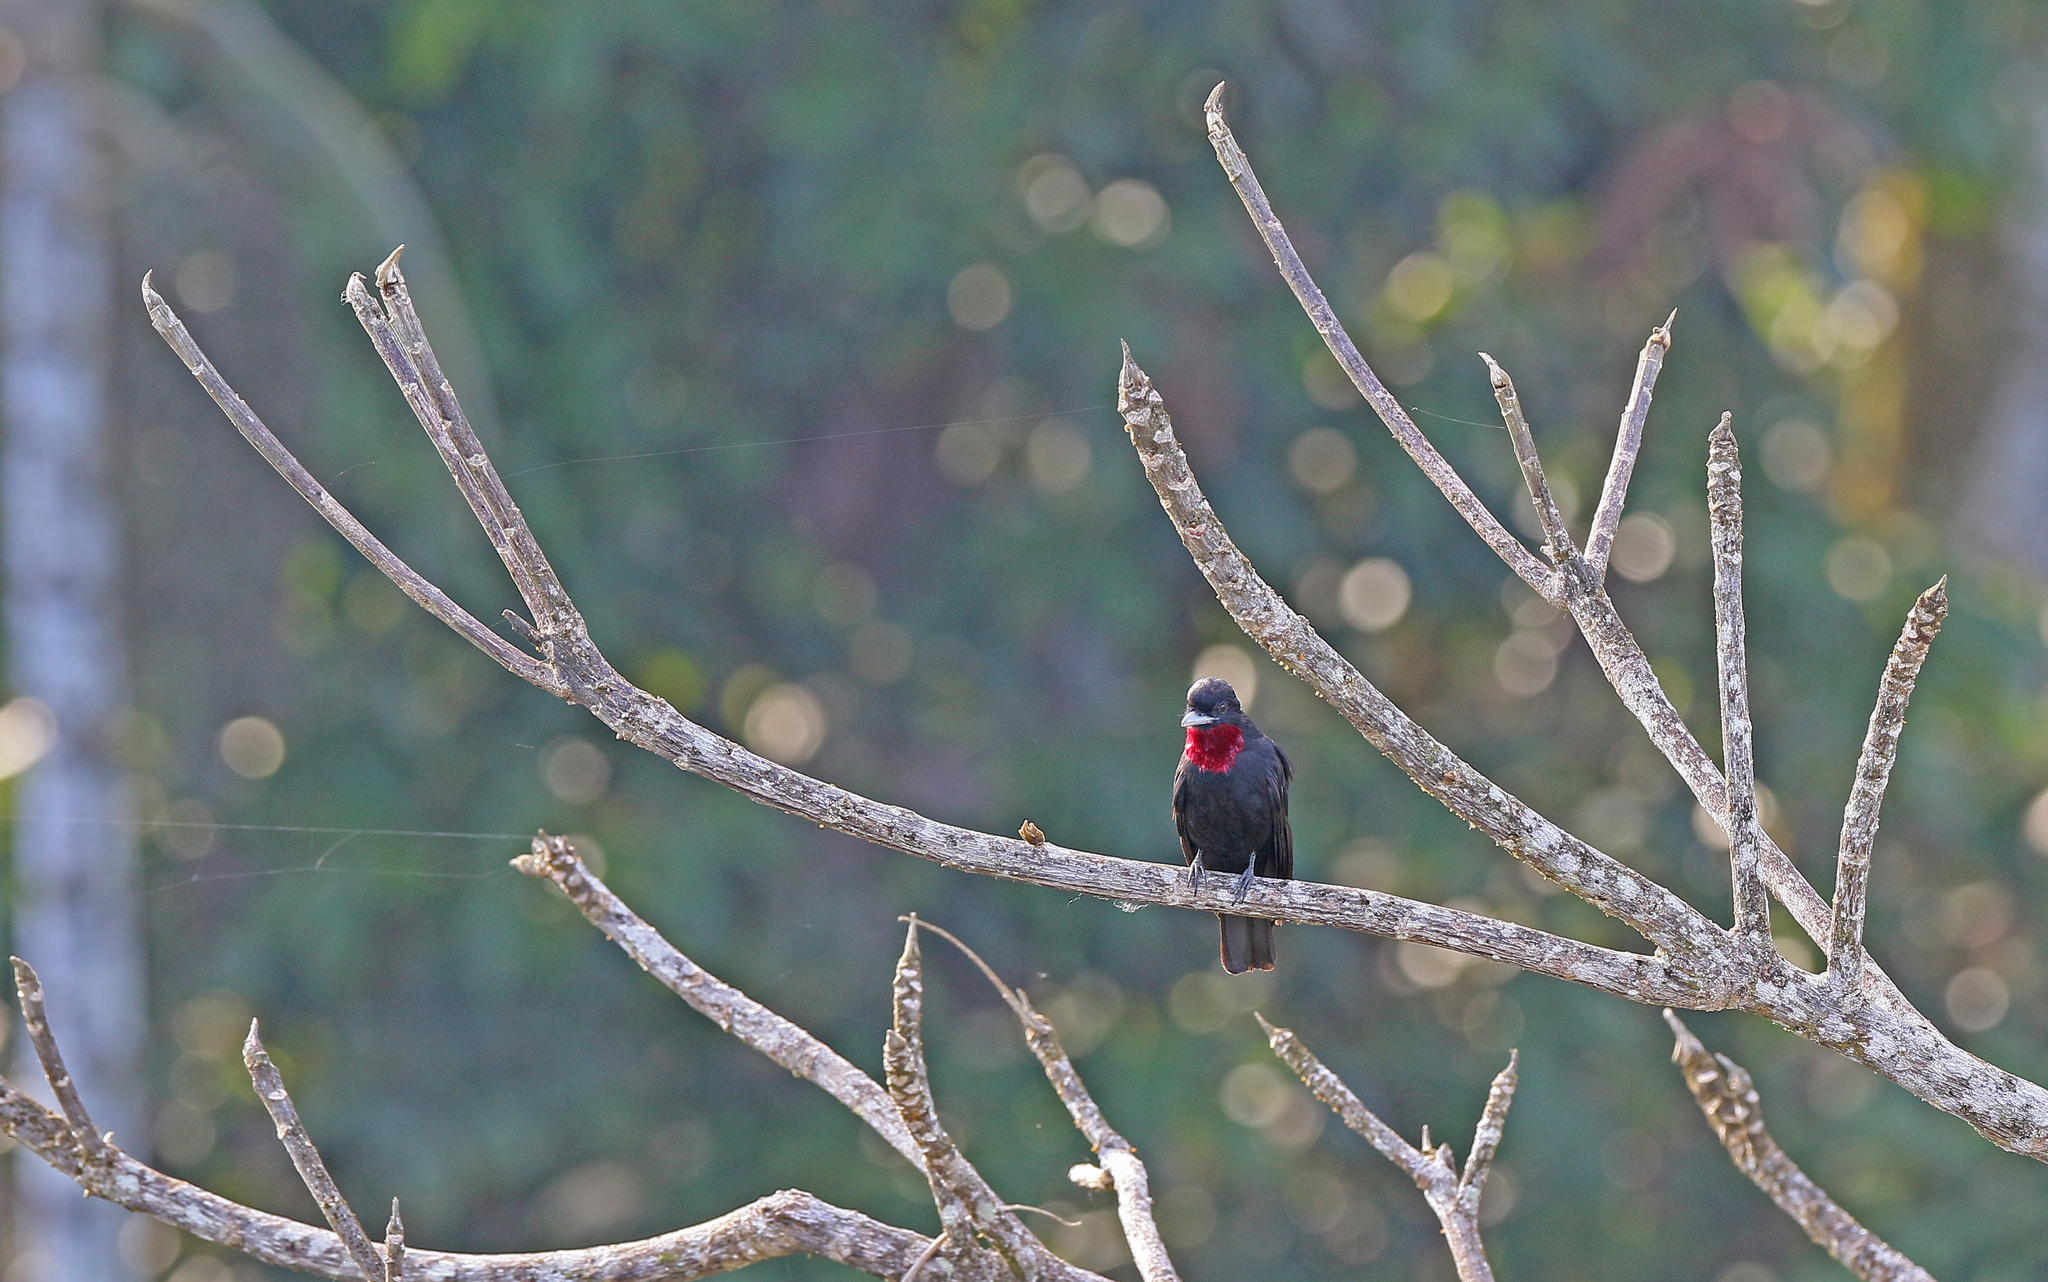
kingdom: Animalia
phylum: Chordata
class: Aves
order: Passeriformes
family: Cotingidae
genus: Querula
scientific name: Querula purpurata
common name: Purple-throated fruitcrow
